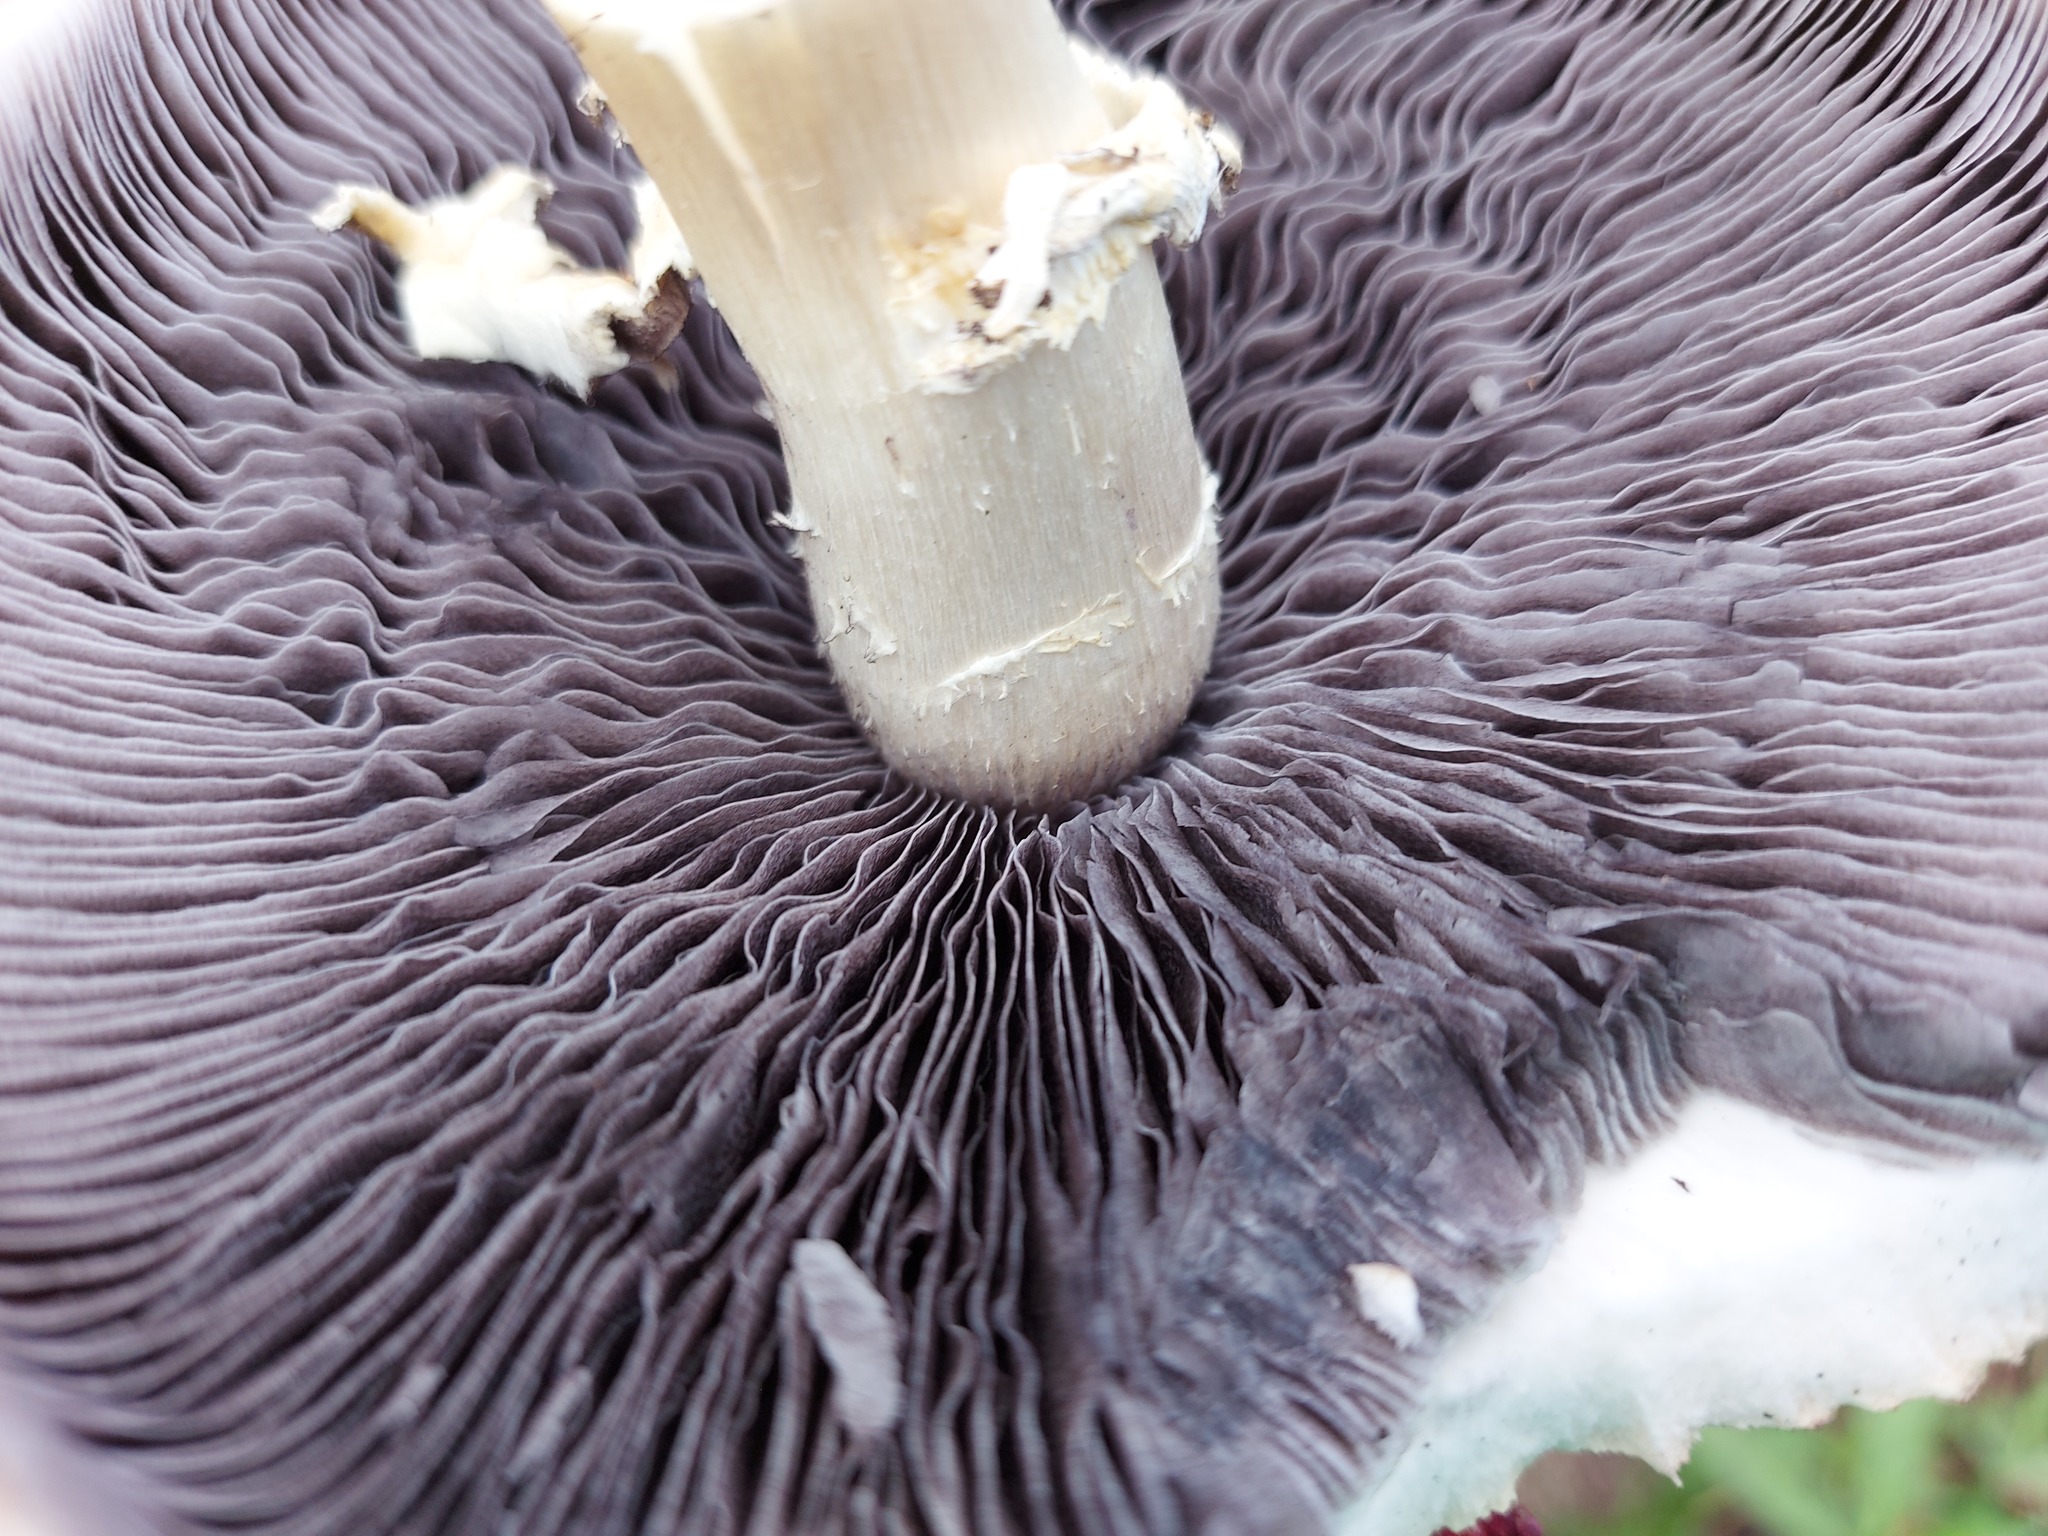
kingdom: Fungi
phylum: Basidiomycota
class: Agaricomycetes
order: Agaricales
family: Strophariaceae
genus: Stropharia
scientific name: Stropharia rugosoannulata
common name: Wine roundhead
